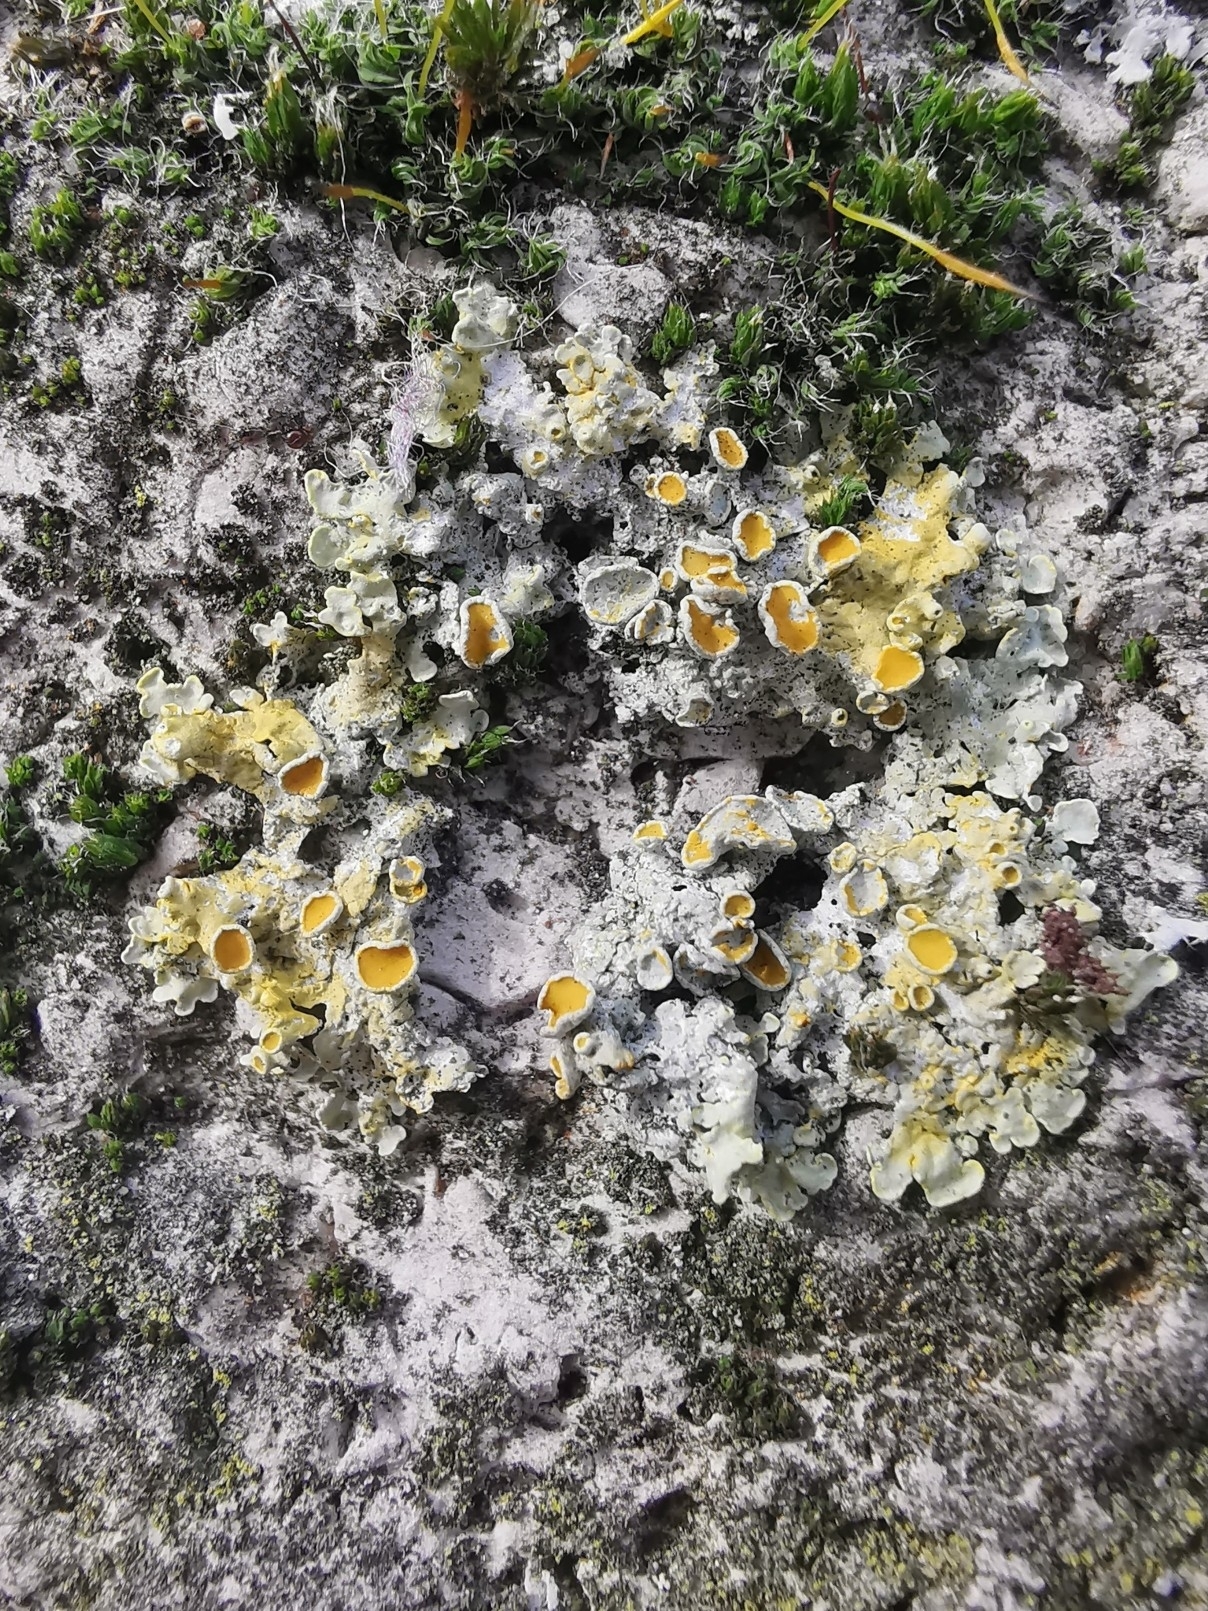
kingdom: Fungi
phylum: Ascomycota
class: Lecanoromycetes
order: Teloschistales
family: Teloschistaceae
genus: Xanthoria
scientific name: Xanthoria parietina
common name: Common orange lichen
